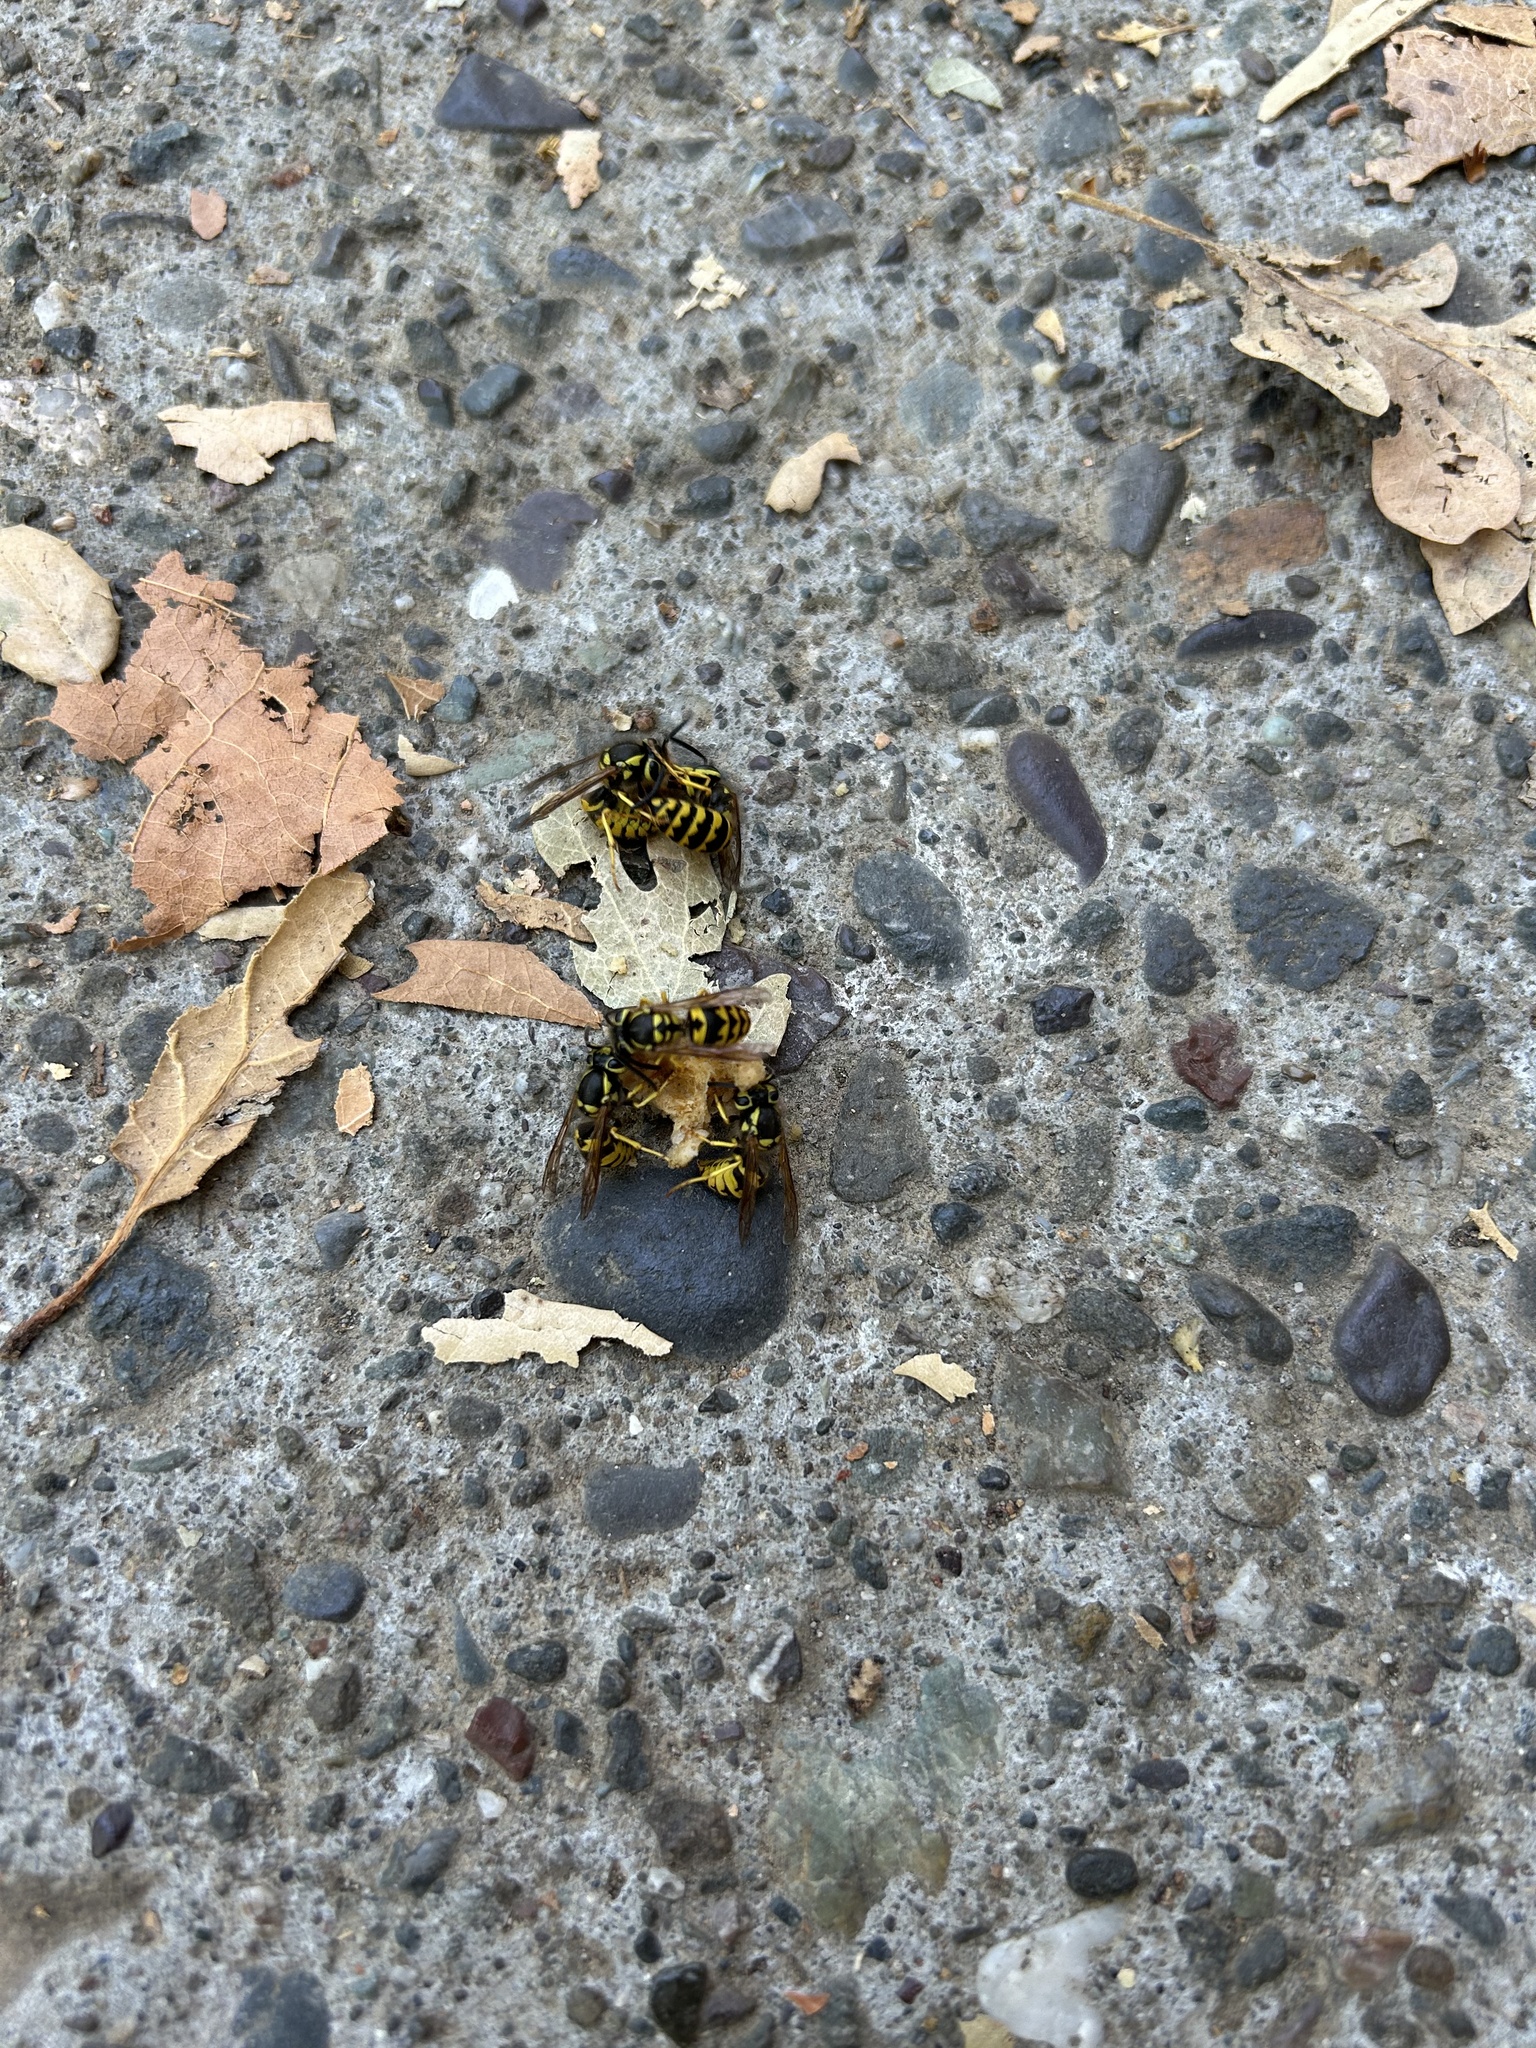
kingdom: Animalia
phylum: Arthropoda
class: Insecta
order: Hymenoptera
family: Vespidae
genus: Vespula
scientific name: Vespula pensylvanica
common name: Western yellowjacket
